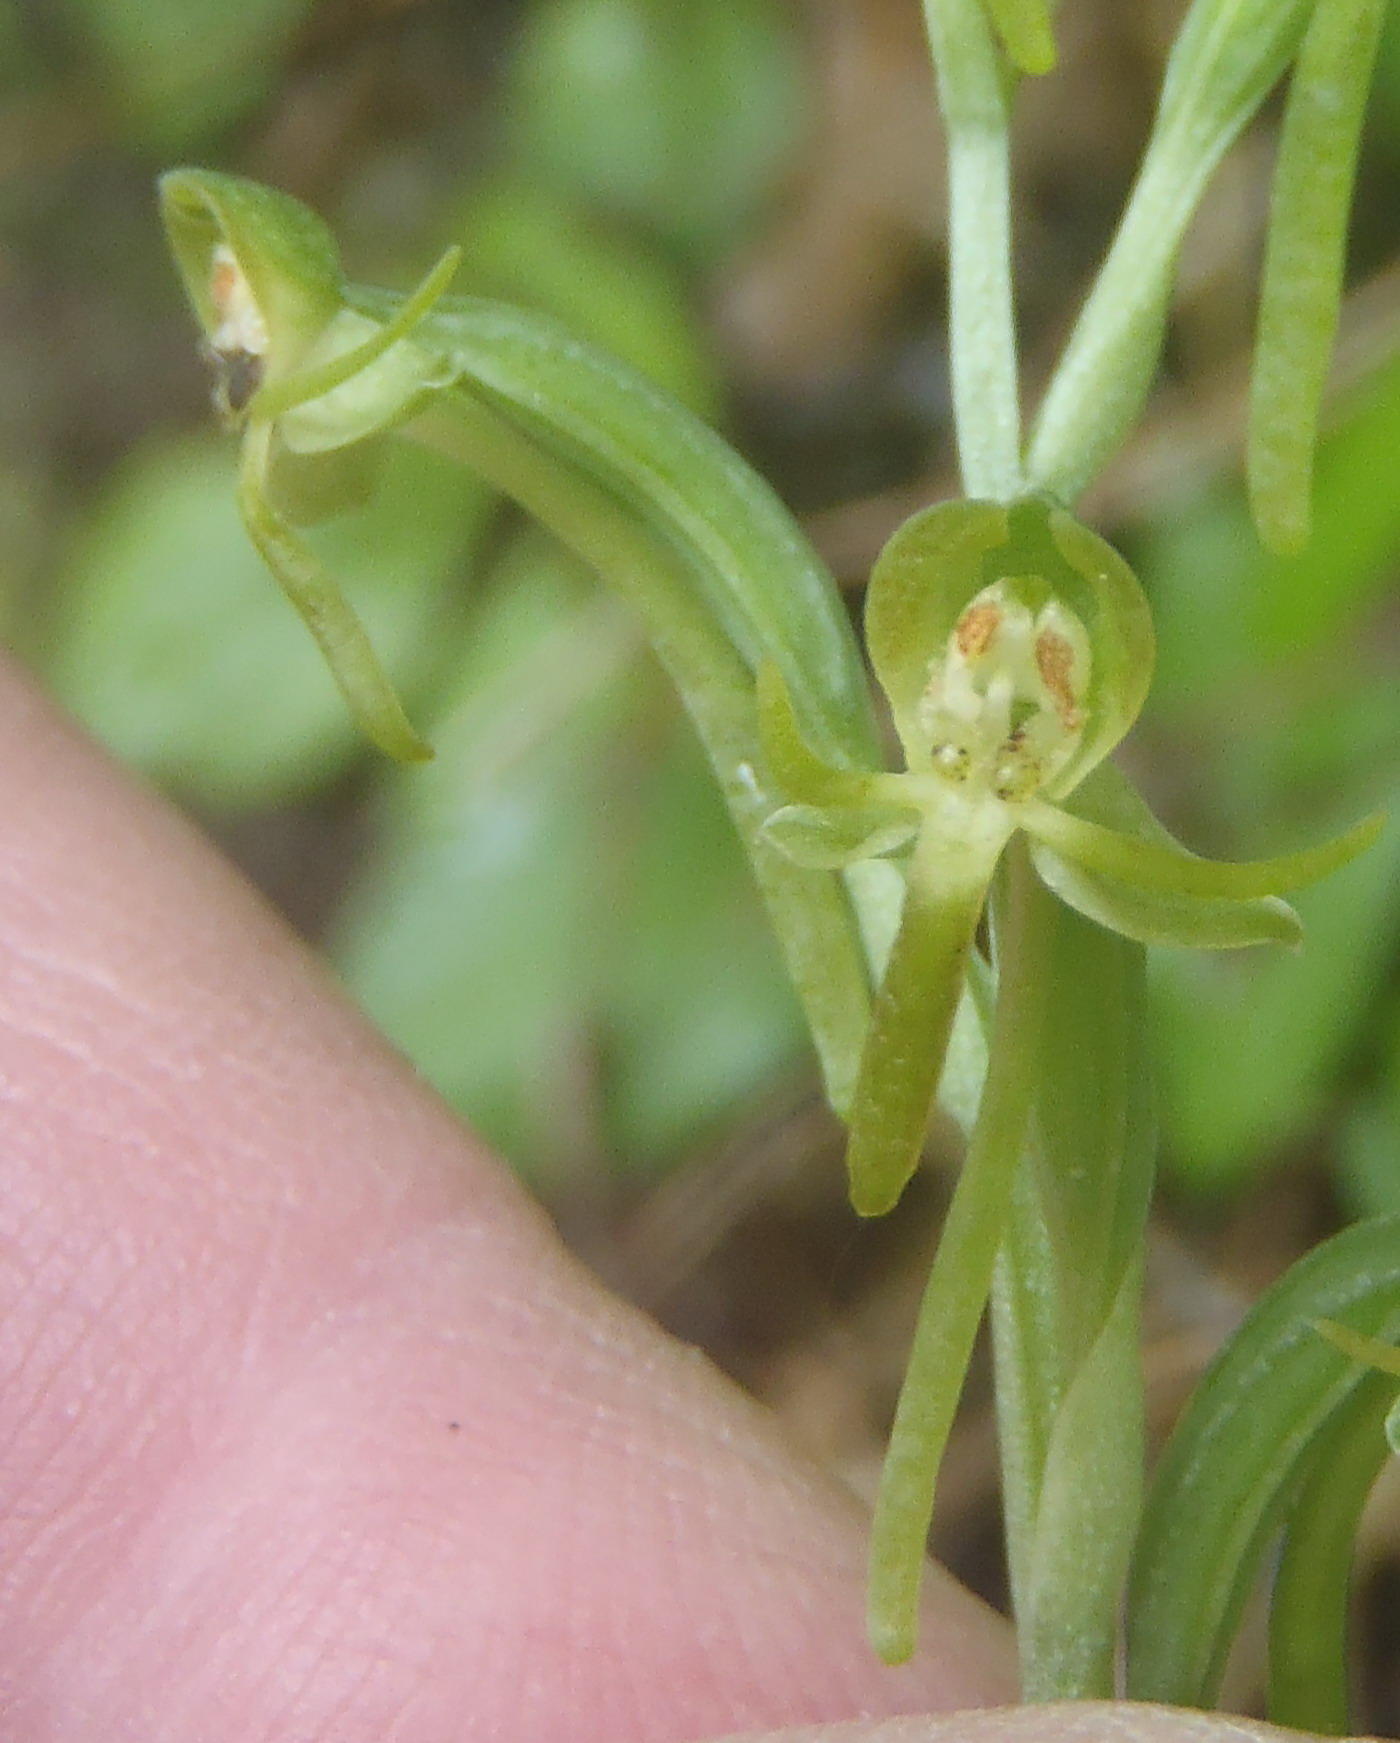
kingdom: Plantae
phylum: Tracheophyta
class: Liliopsida
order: Asparagales
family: Orchidaceae
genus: Habenaria
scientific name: Habenaria arenaria
